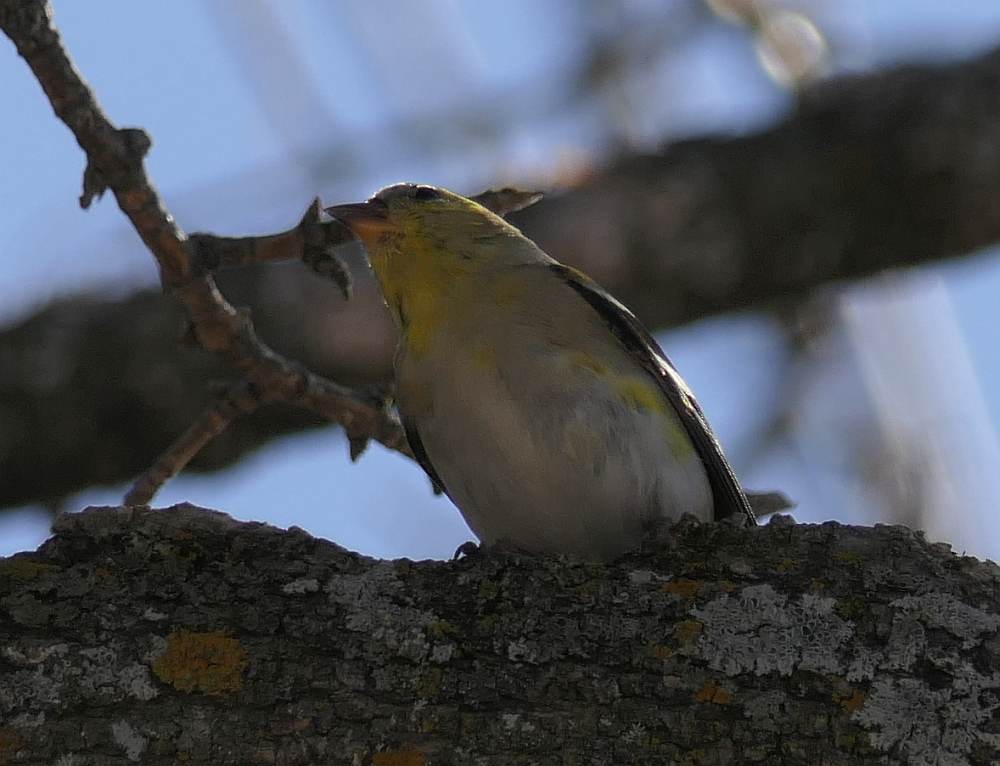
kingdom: Animalia
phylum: Chordata
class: Aves
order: Passeriformes
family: Fringillidae
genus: Spinus
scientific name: Spinus tristis
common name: American goldfinch
